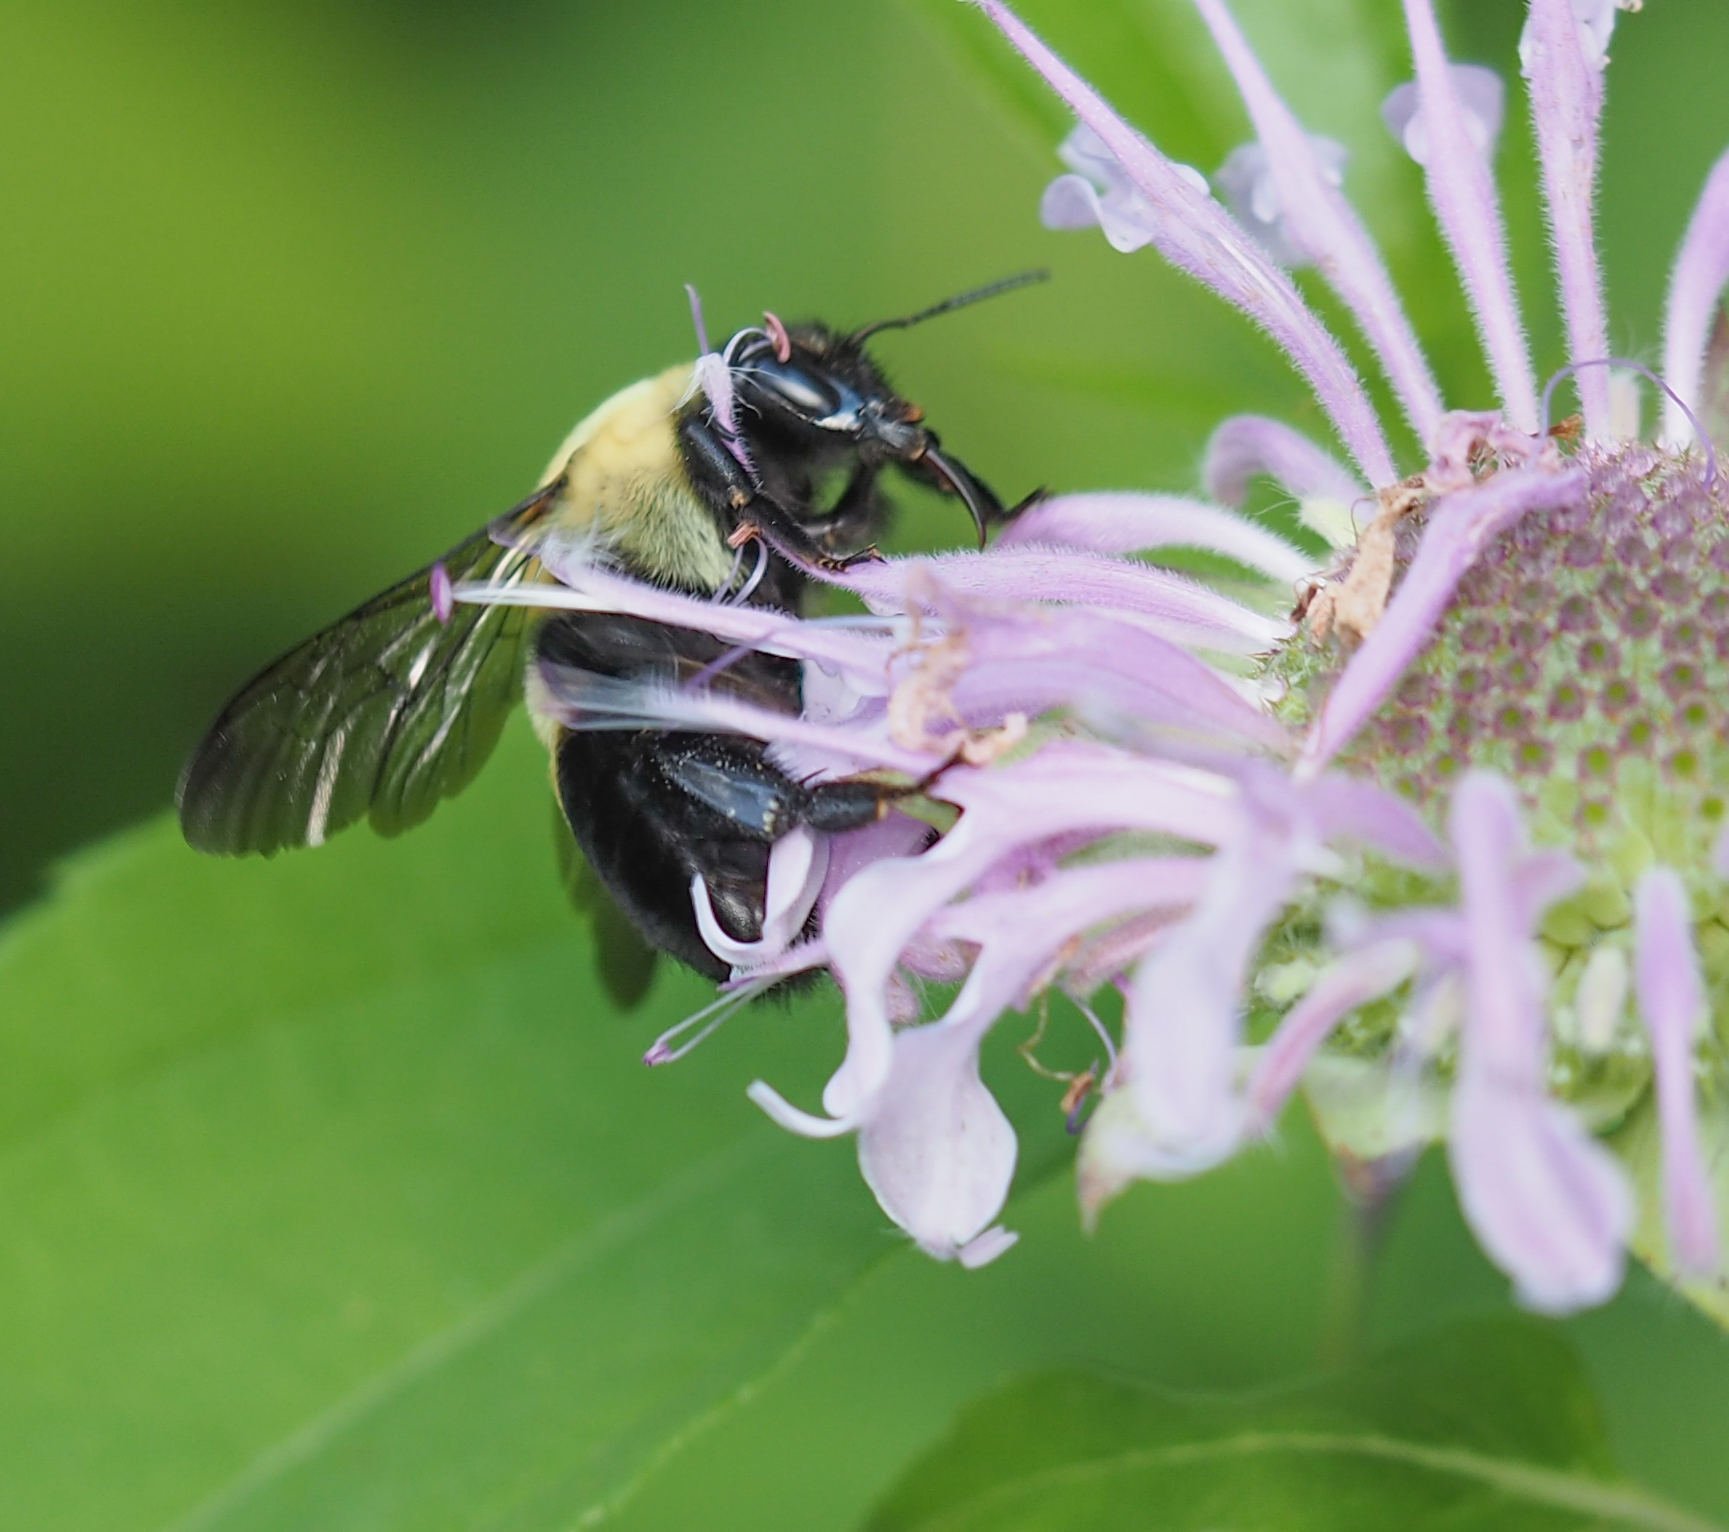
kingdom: Animalia
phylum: Arthropoda
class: Insecta
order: Hymenoptera
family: Apidae
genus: Bombus
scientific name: Bombus
